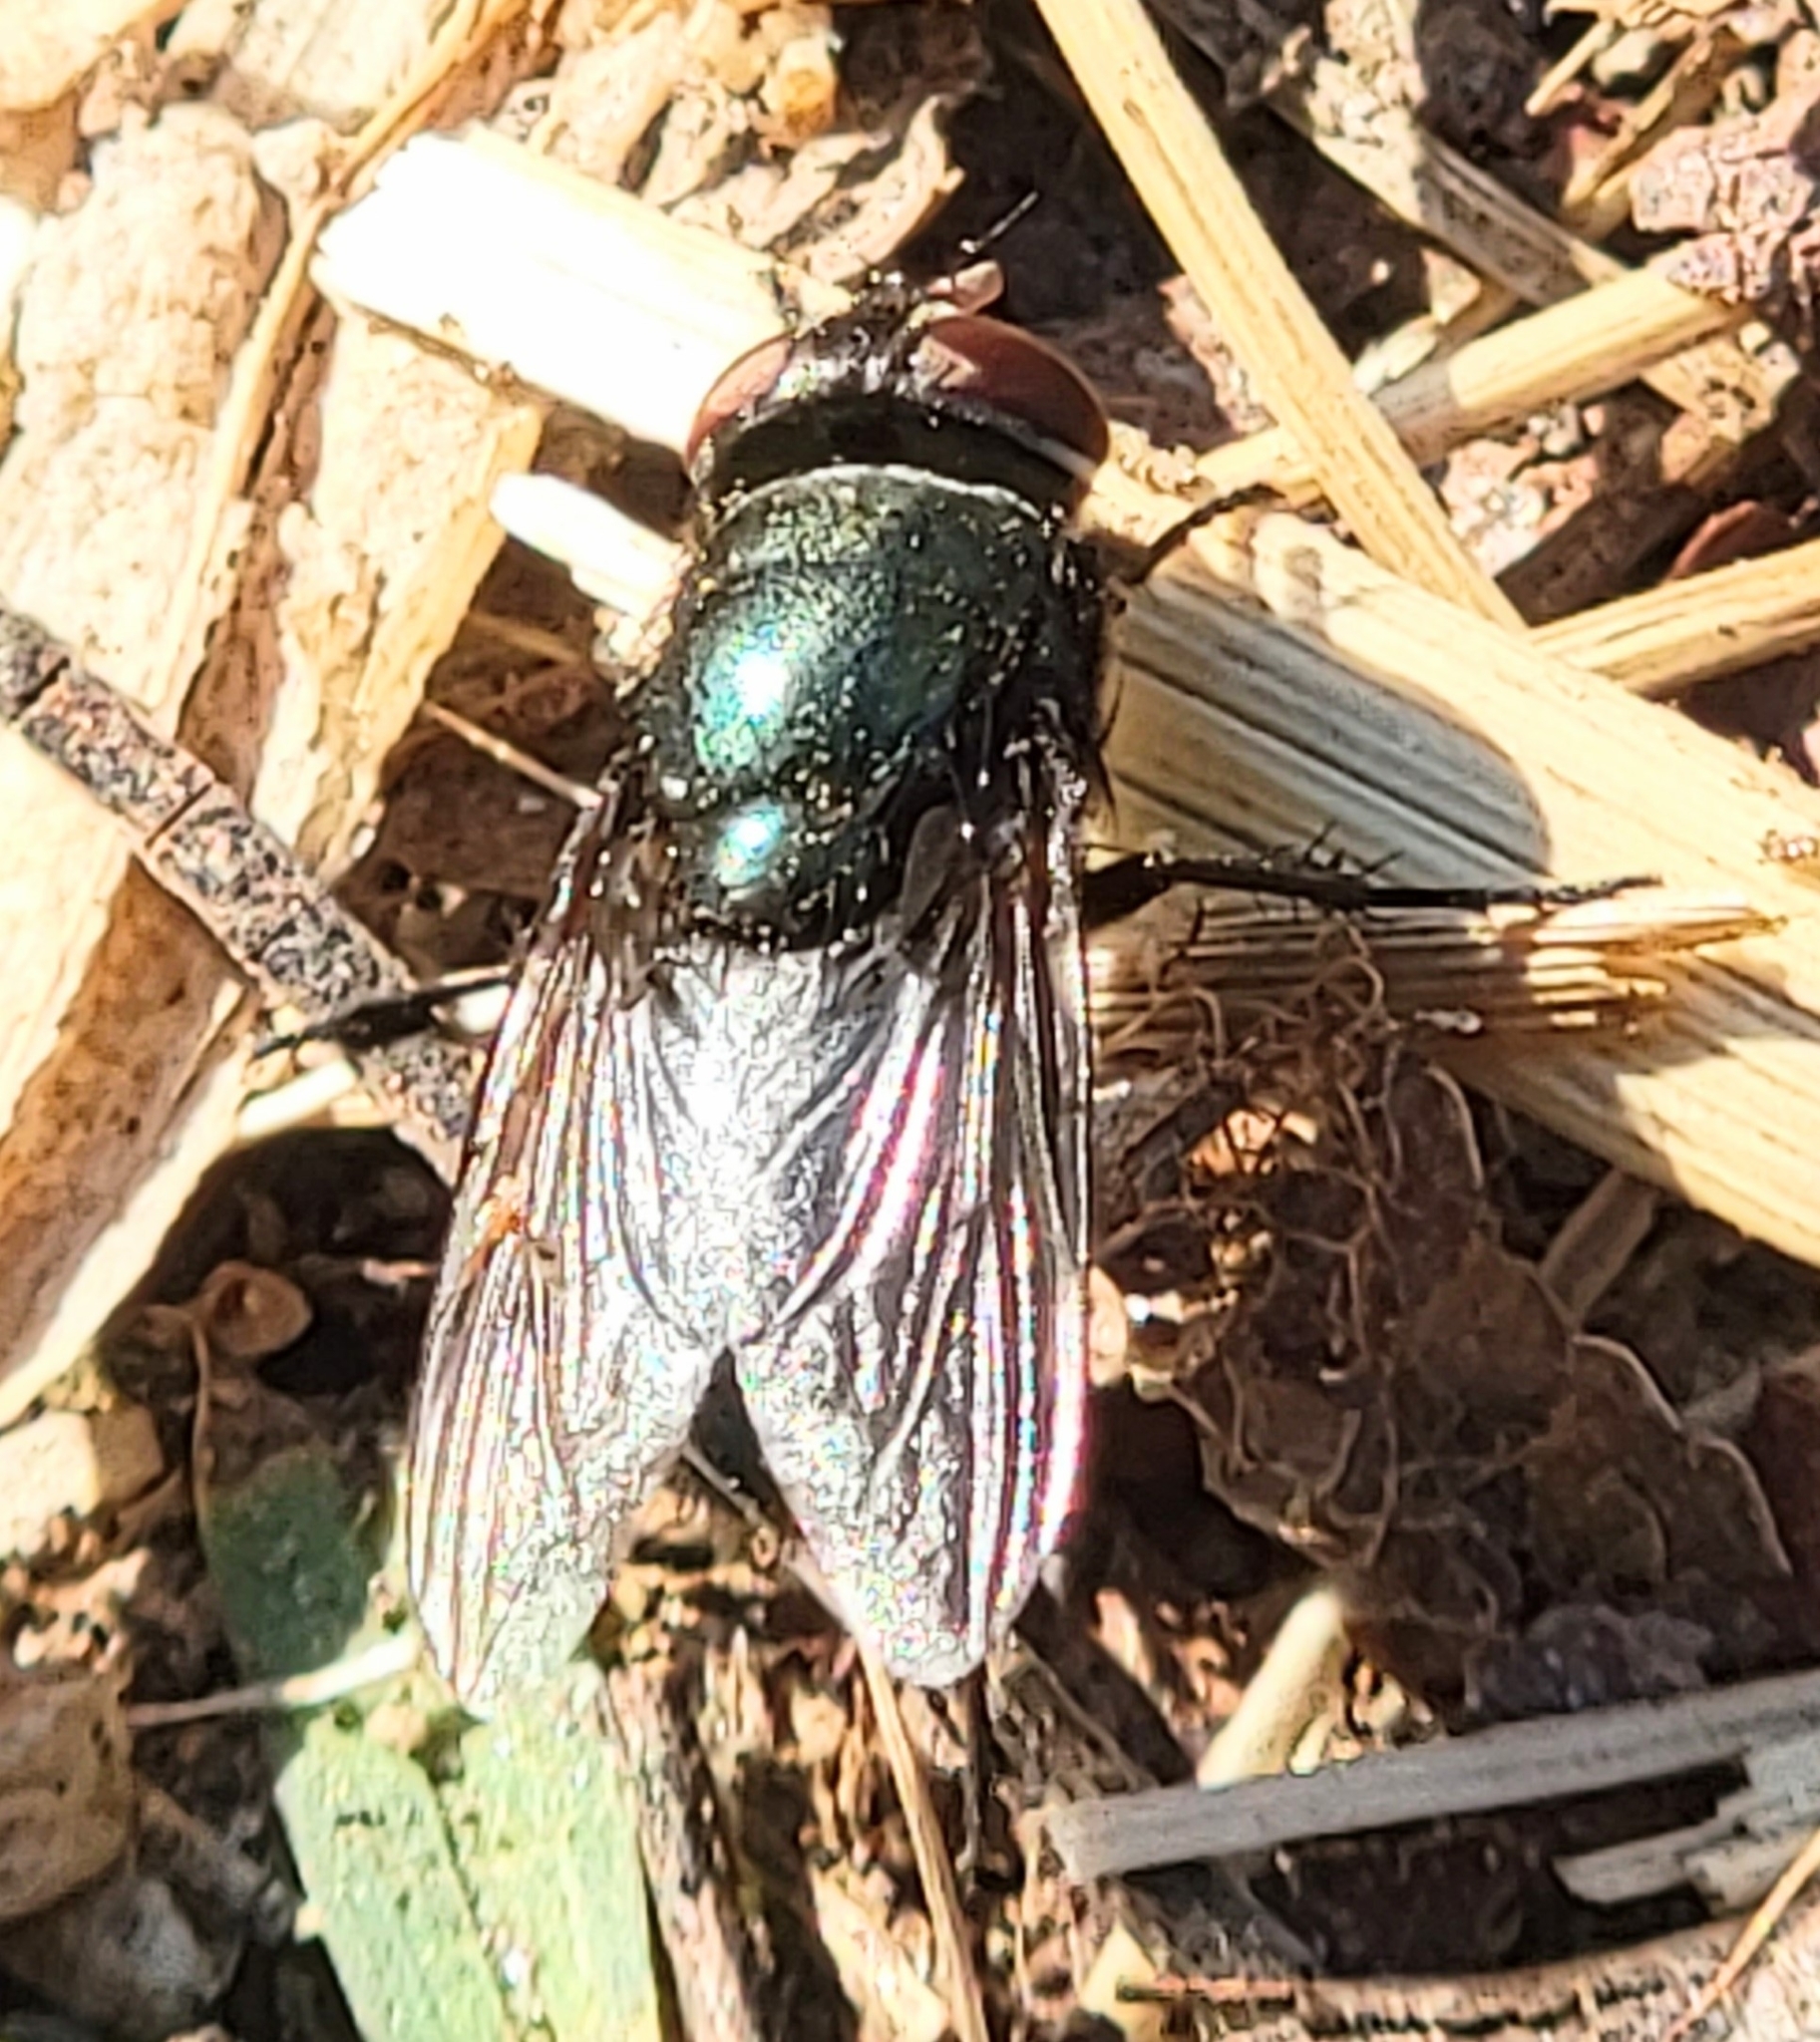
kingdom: Animalia
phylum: Arthropoda
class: Insecta
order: Diptera
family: Calliphoridae
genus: Phormia
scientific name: Phormia regina
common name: Black blow fly
